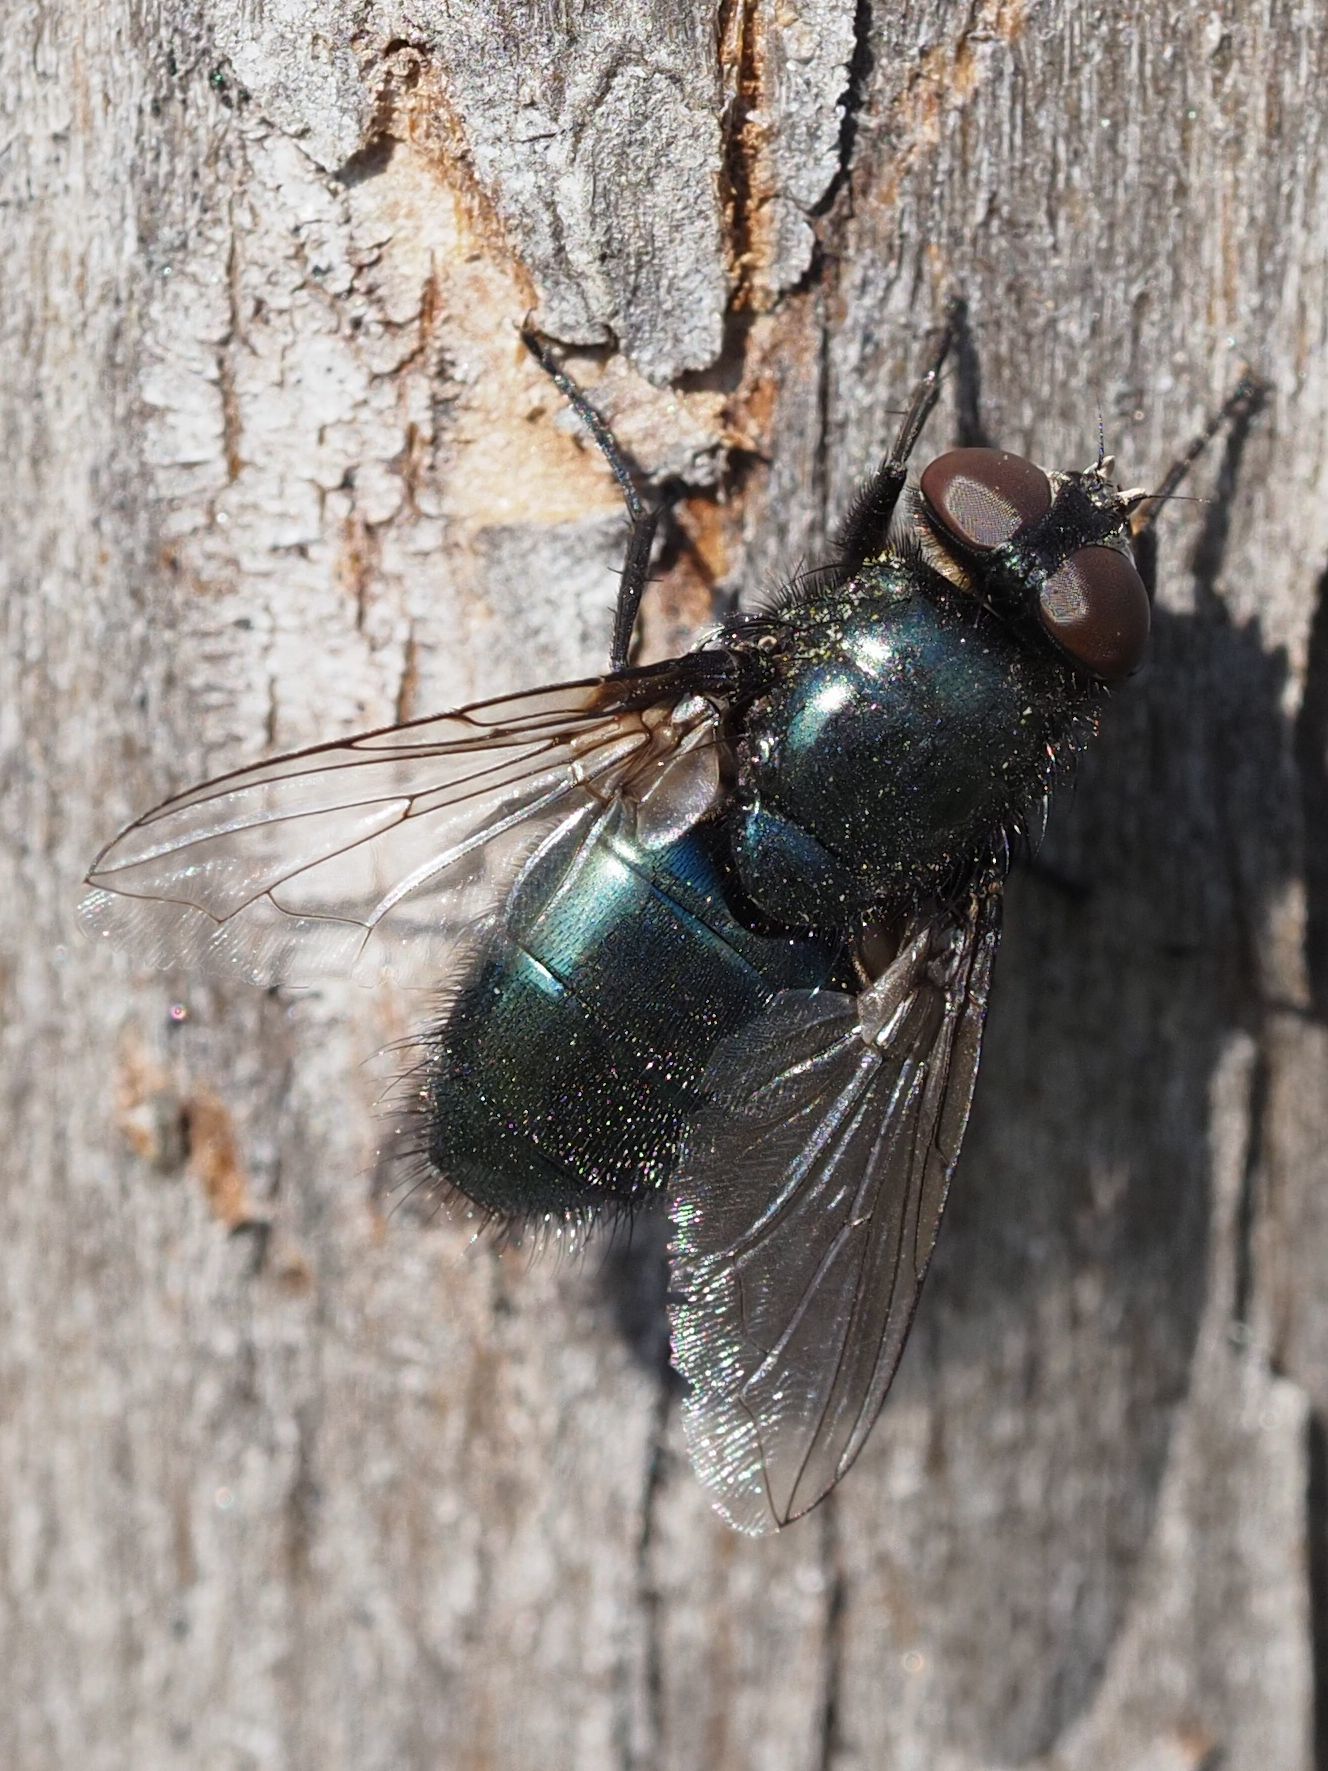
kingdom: Animalia
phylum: Arthropoda
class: Insecta
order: Diptera
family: Calliphoridae
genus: Protophormia
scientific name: Protophormia terraenovae
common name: Blackbottle
